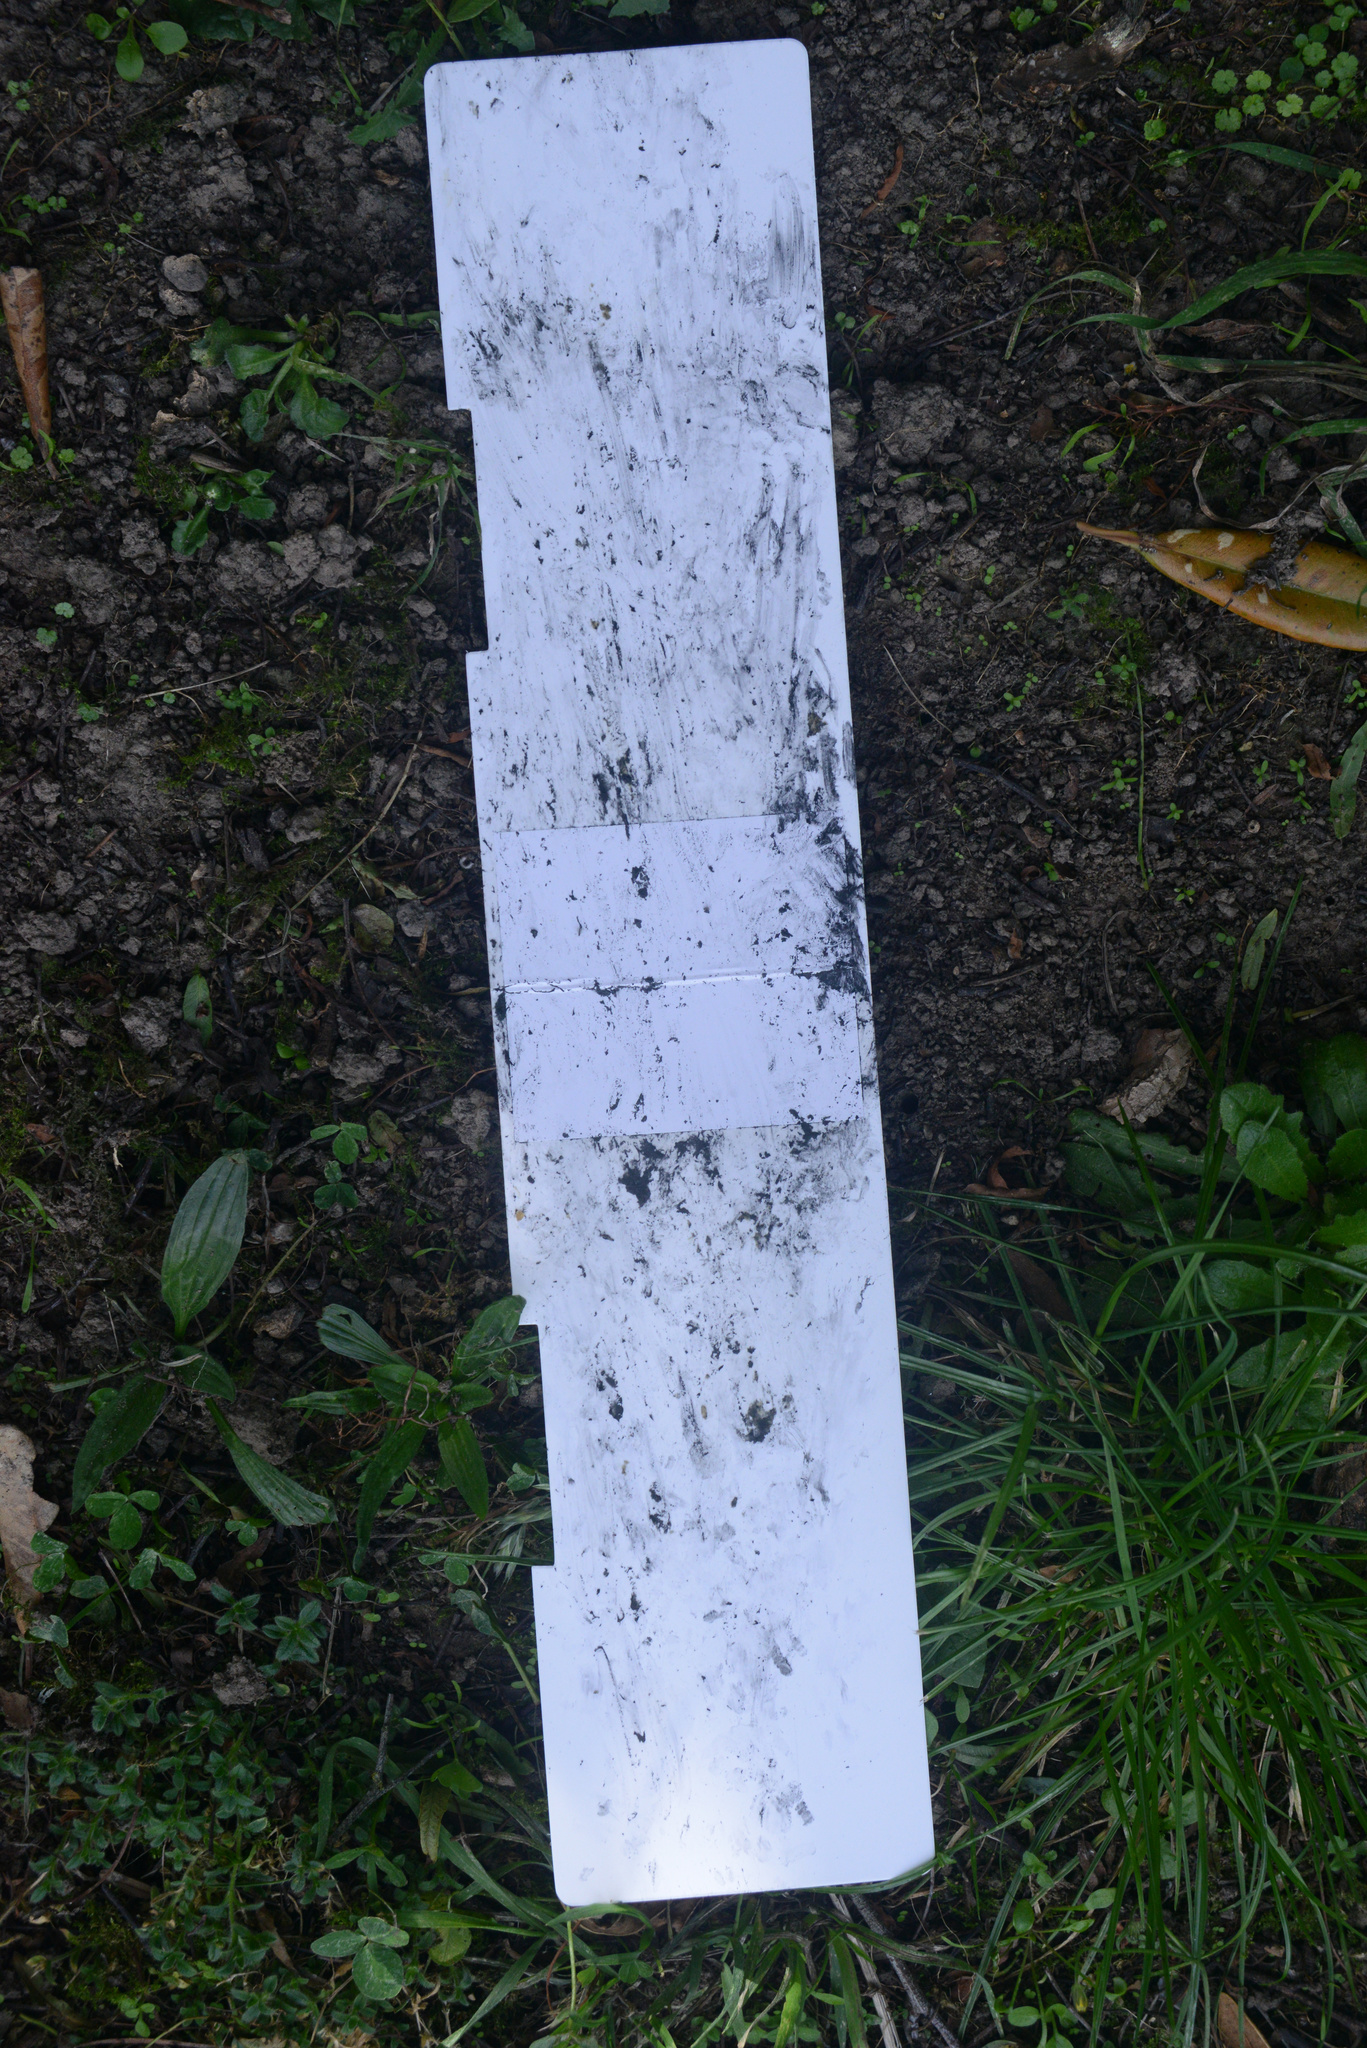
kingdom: Animalia
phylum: Chordata
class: Mammalia
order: Erinaceomorpha
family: Erinaceidae
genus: Erinaceus
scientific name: Erinaceus europaeus
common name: West european hedgehog
